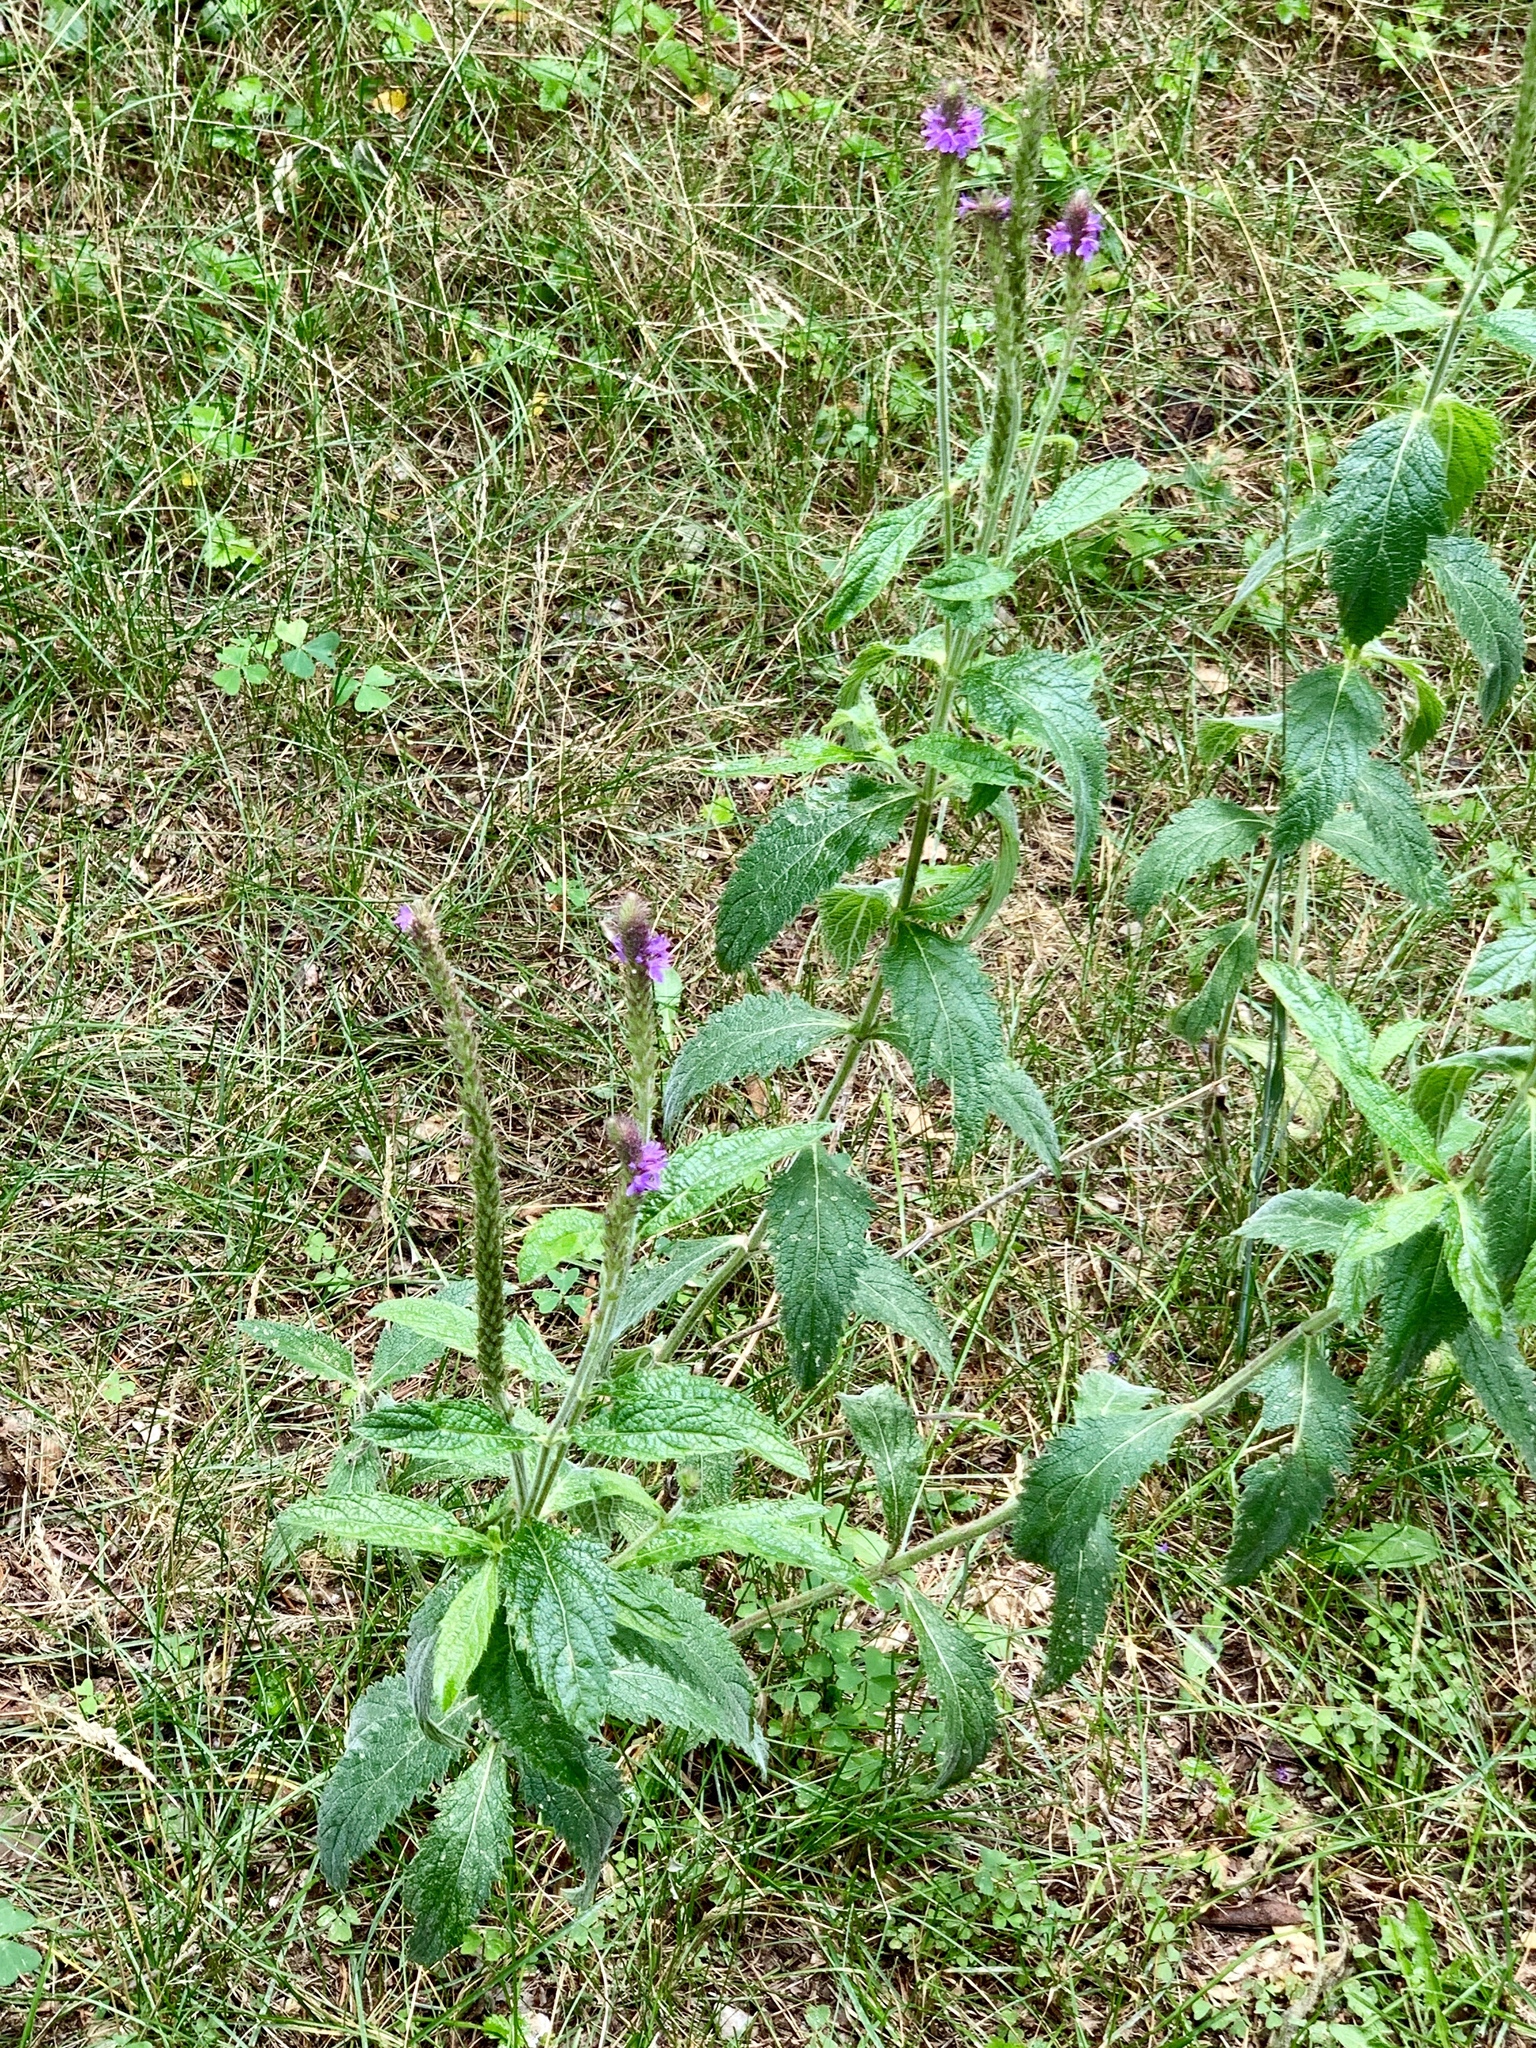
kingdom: Plantae
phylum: Tracheophyta
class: Magnoliopsida
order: Lamiales
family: Verbenaceae
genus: Verbena
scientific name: Verbena macdougalii
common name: New mexico vervain
